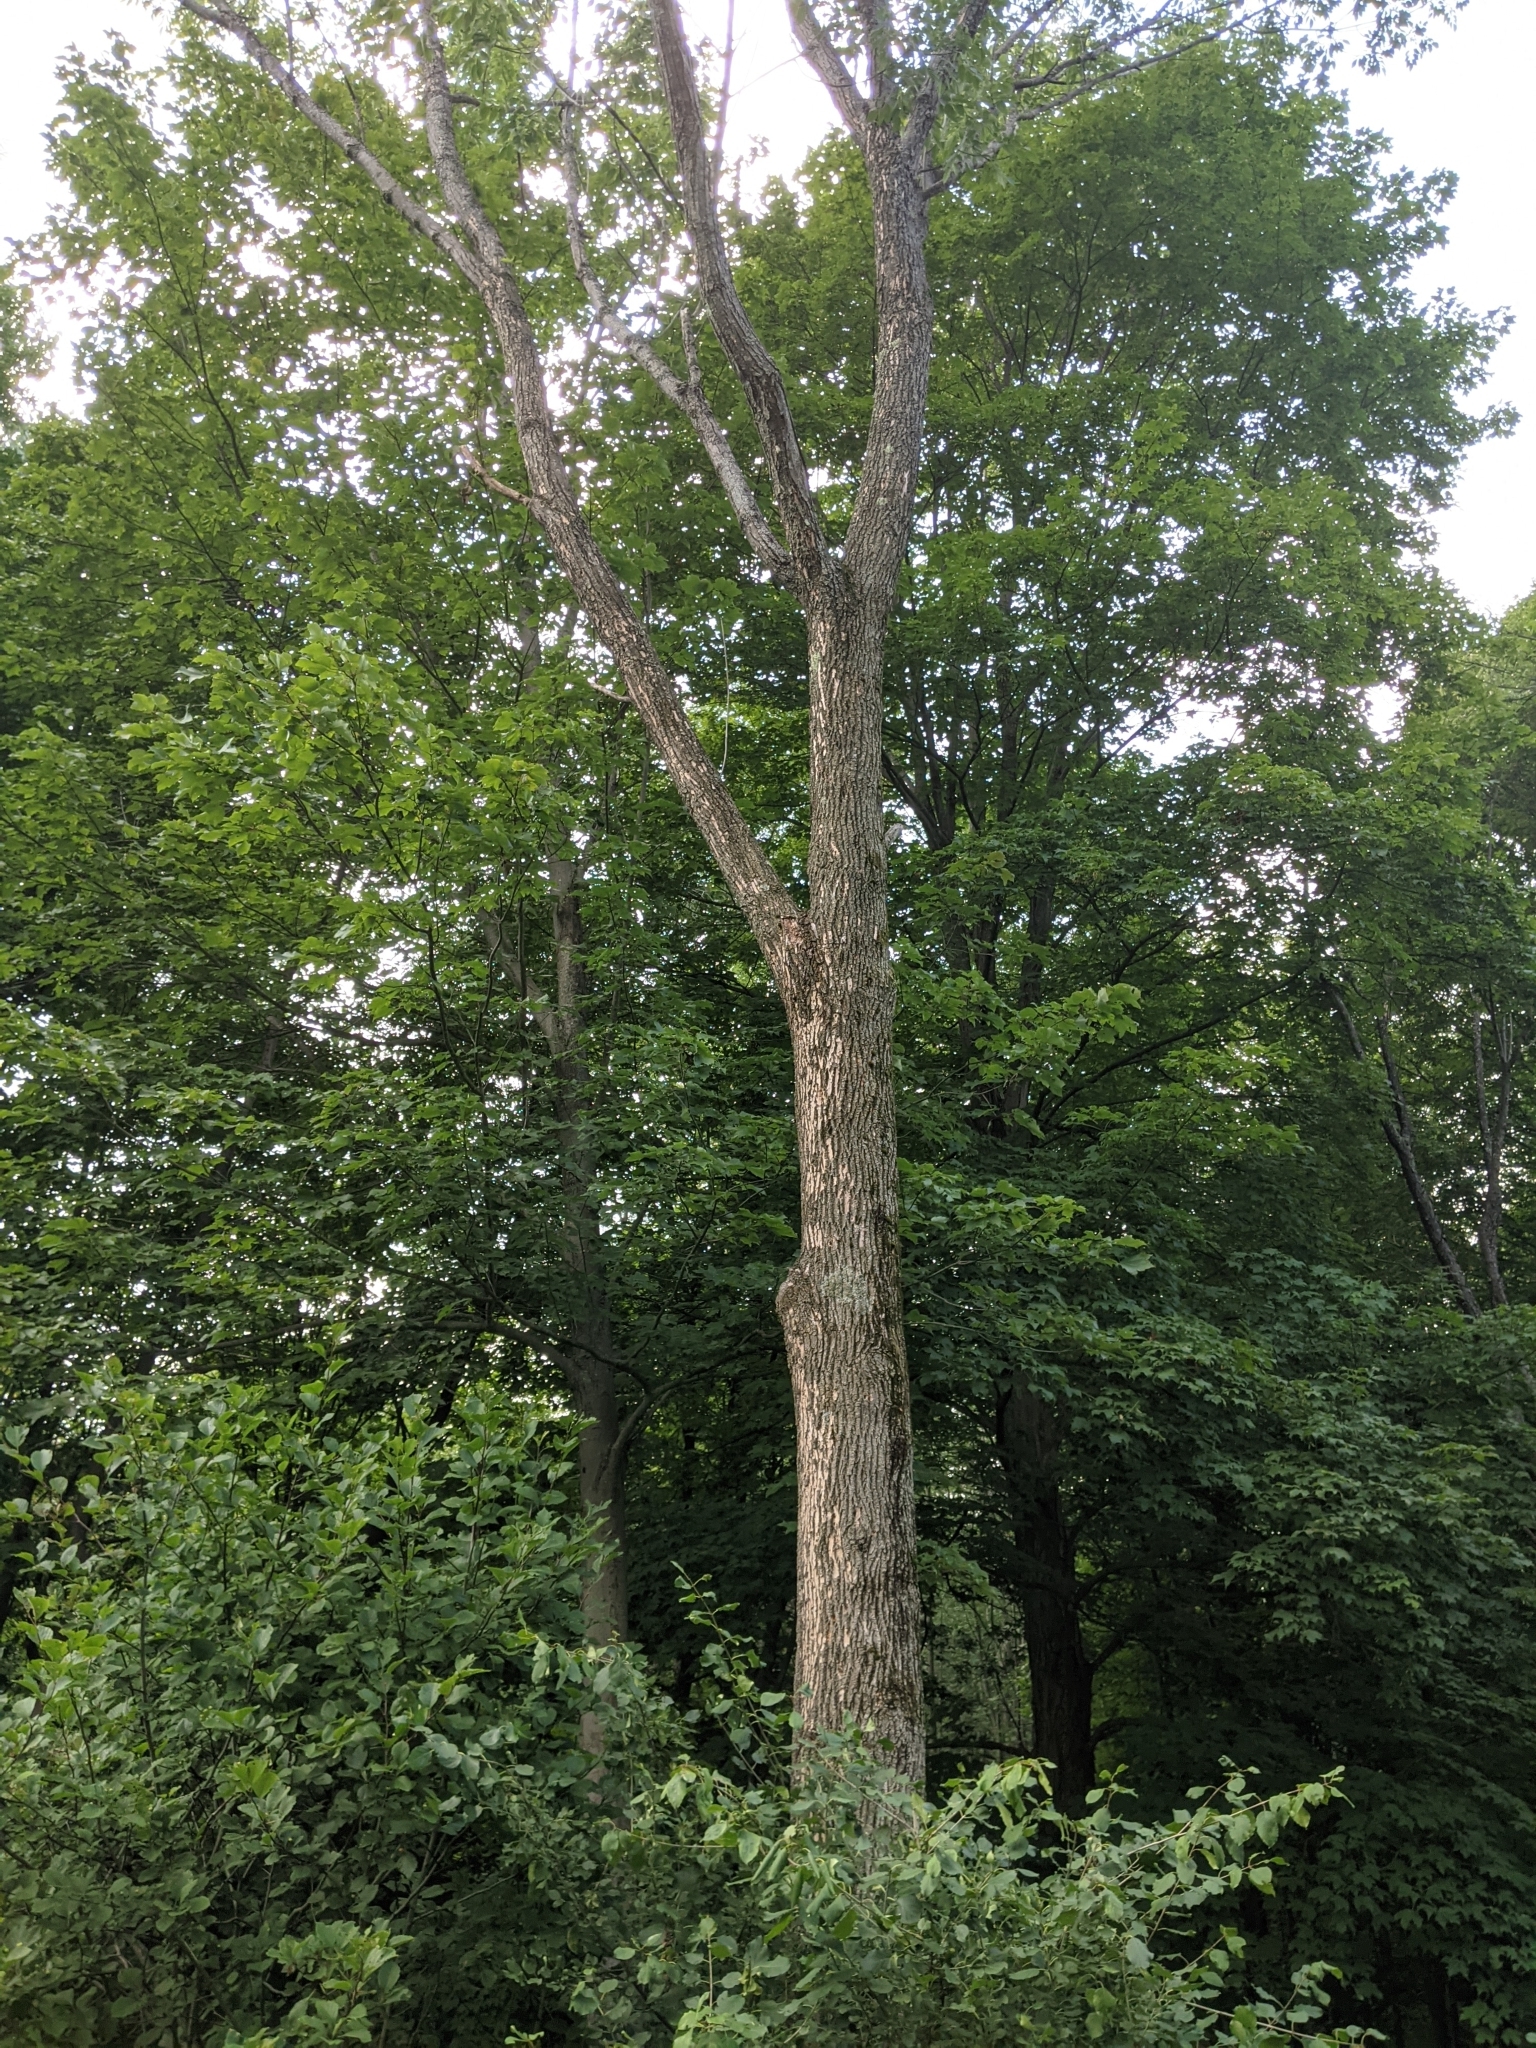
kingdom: Animalia
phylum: Arthropoda
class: Insecta
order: Coleoptera
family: Buprestidae
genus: Agrilus
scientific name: Agrilus planipennis
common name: Emerald ash borer
